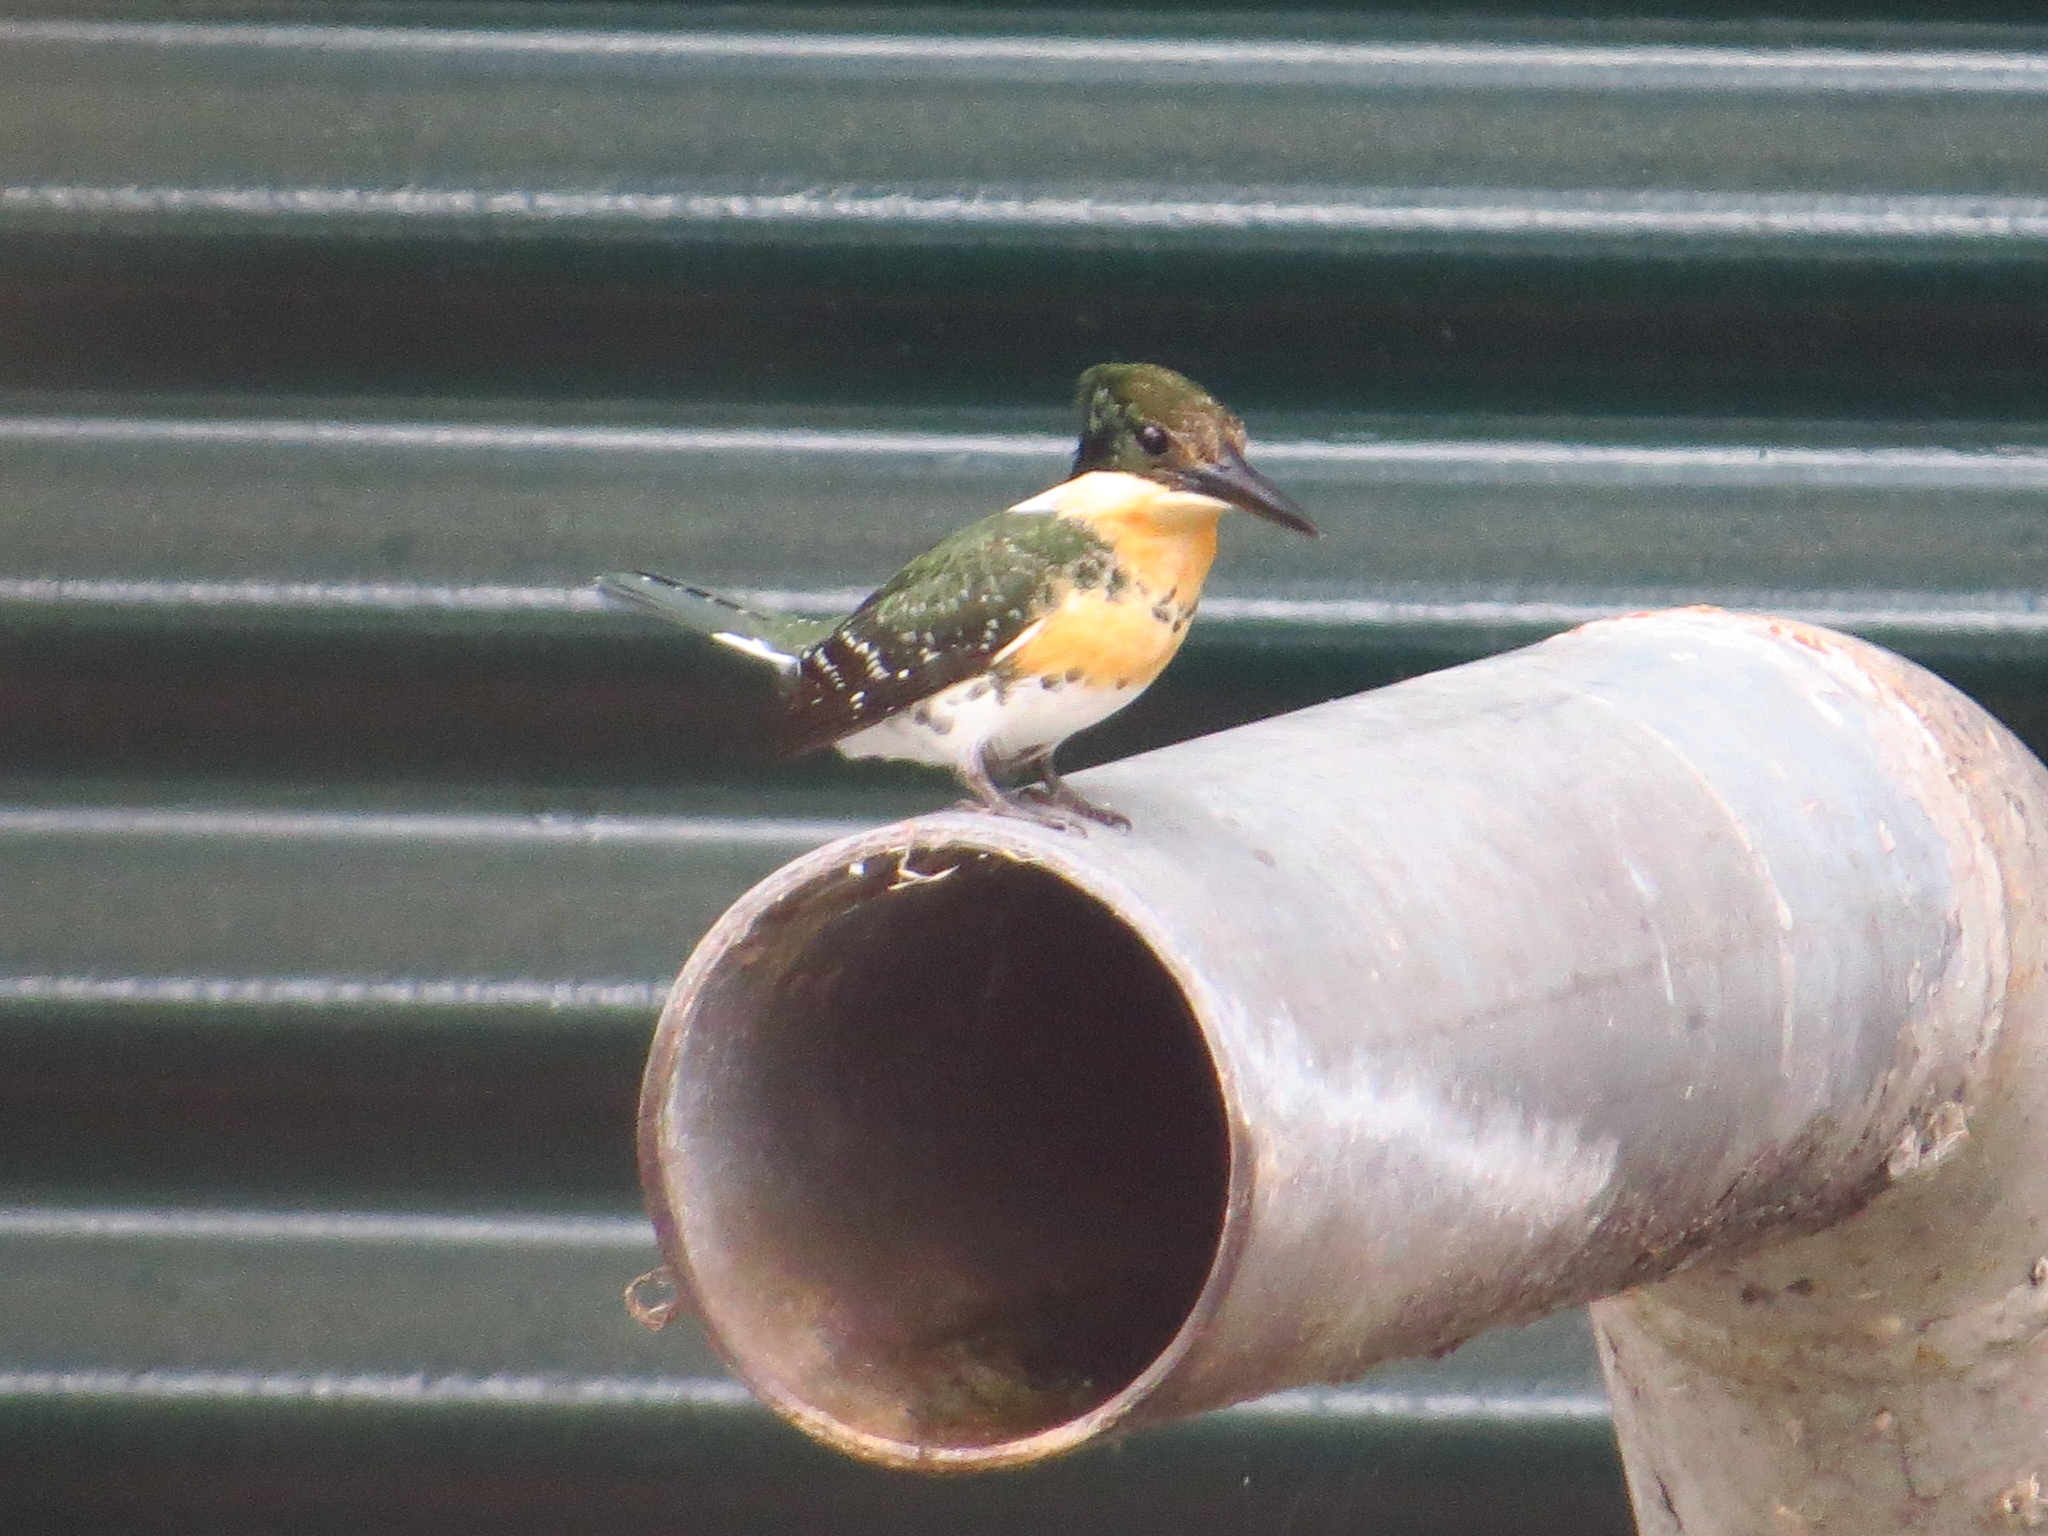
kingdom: Animalia
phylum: Chordata
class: Aves
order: Coraciiformes
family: Alcedinidae
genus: Chloroceryle
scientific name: Chloroceryle americana
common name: Green kingfisher
